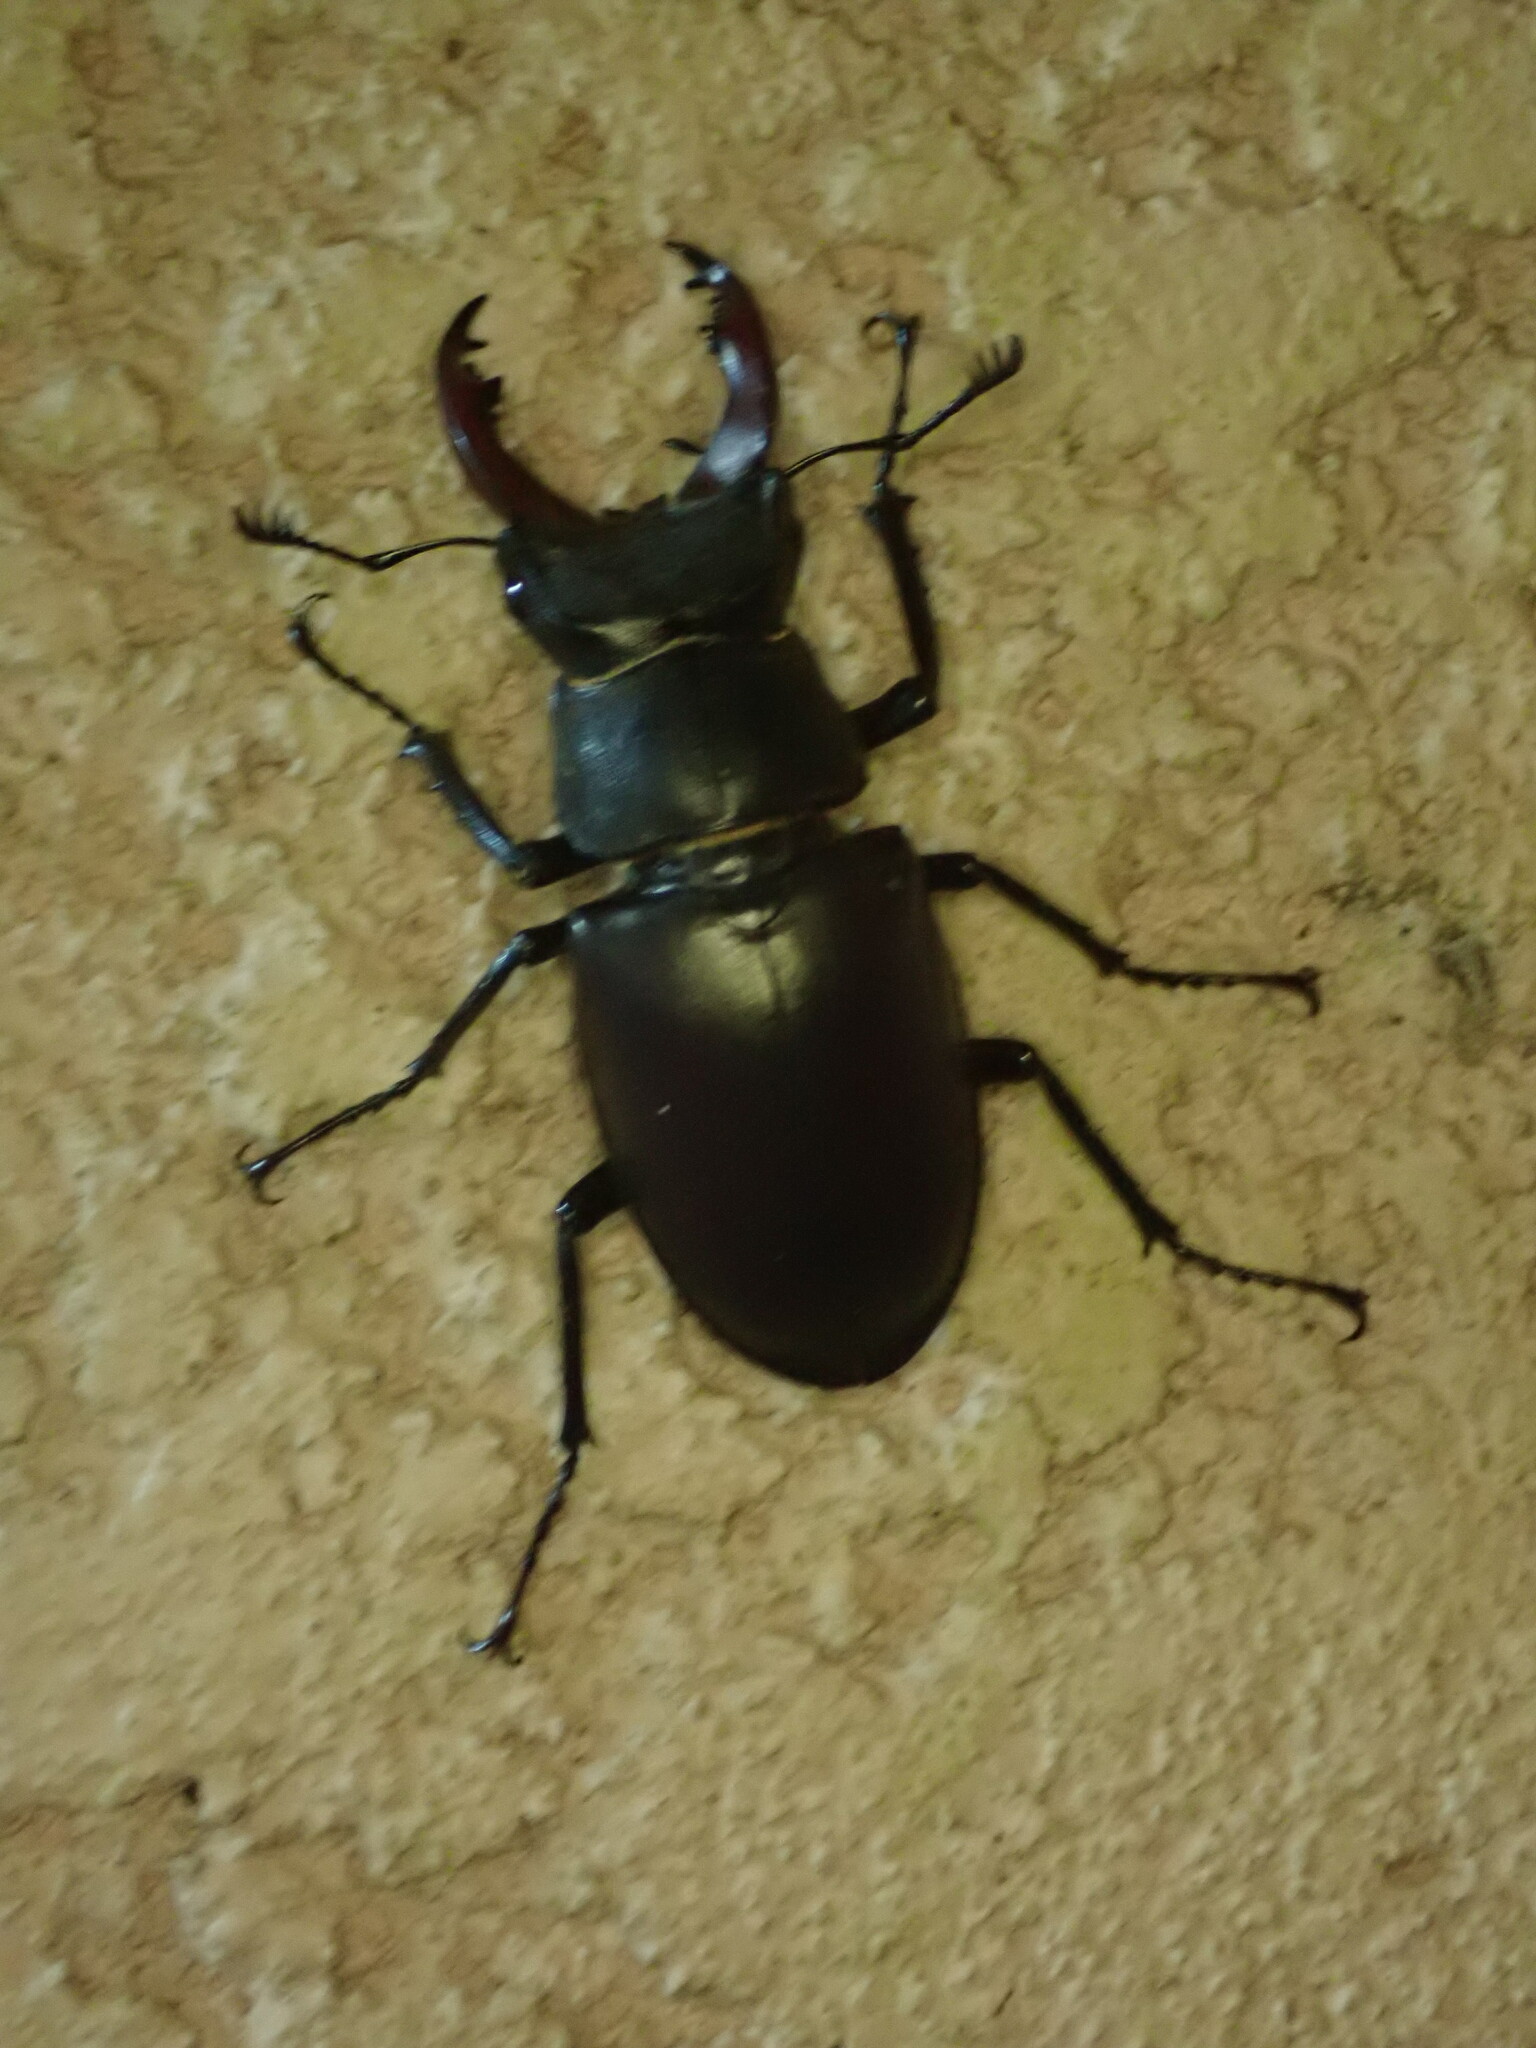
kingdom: Animalia
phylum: Arthropoda
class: Insecta
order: Coleoptera
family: Lucanidae
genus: Lucanus
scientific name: Lucanus cervus
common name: Stag beetle
